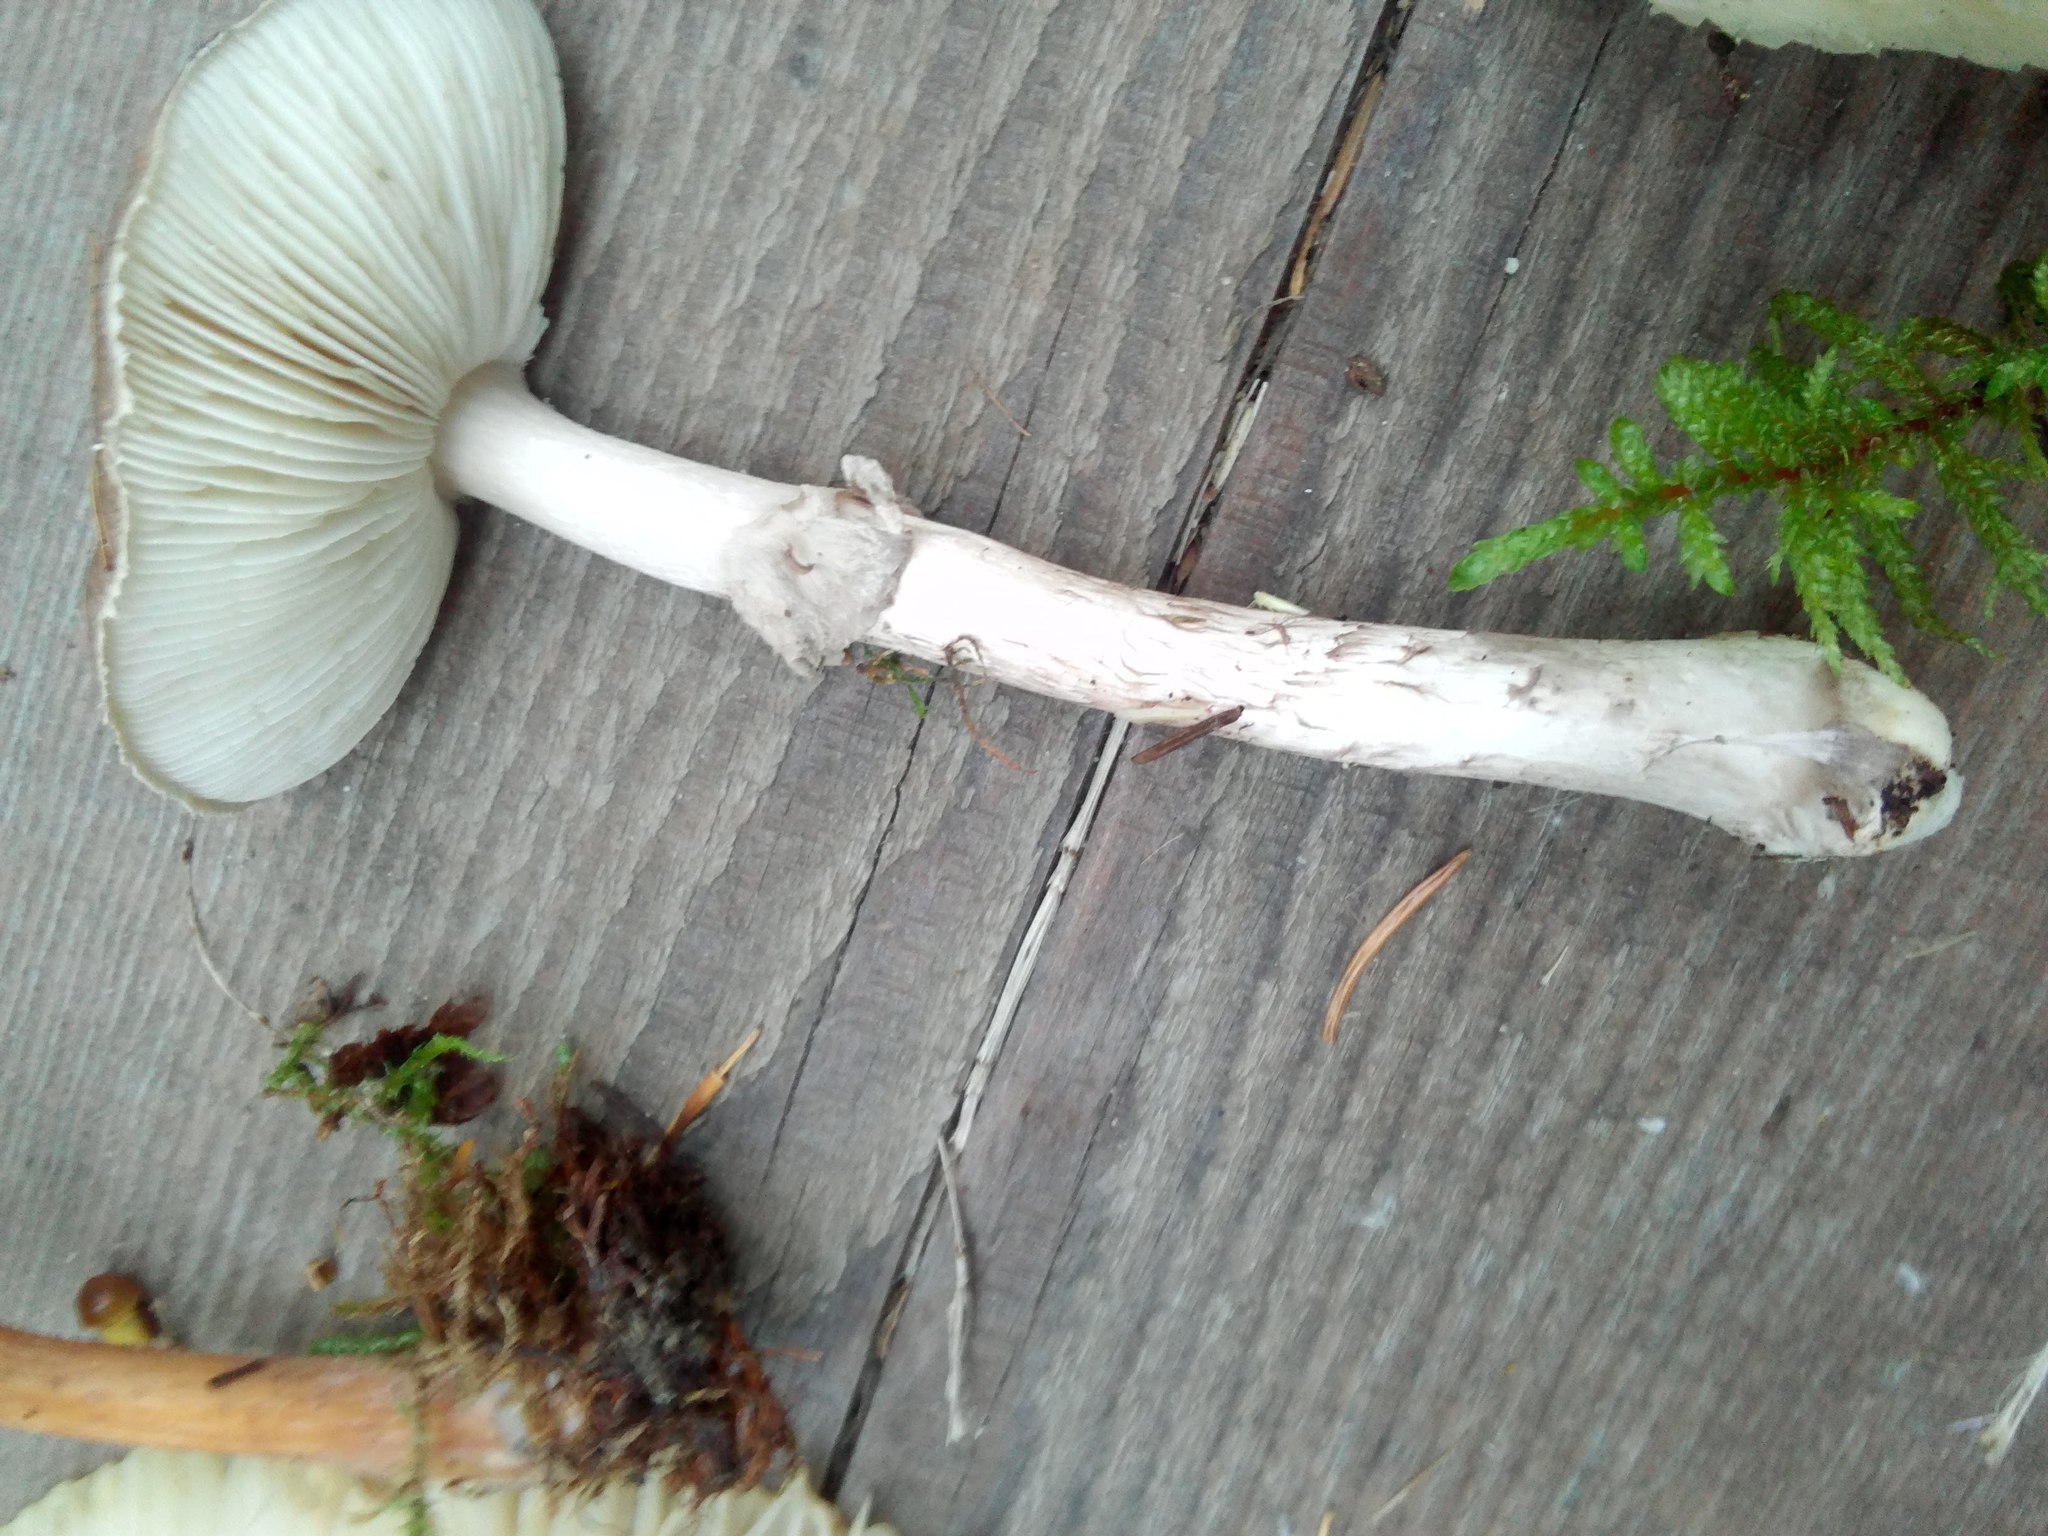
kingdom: Fungi
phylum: Basidiomycota
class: Agaricomycetes
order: Agaricales
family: Amanitaceae
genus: Amanita
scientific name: Amanita pantherina
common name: Panthercap
